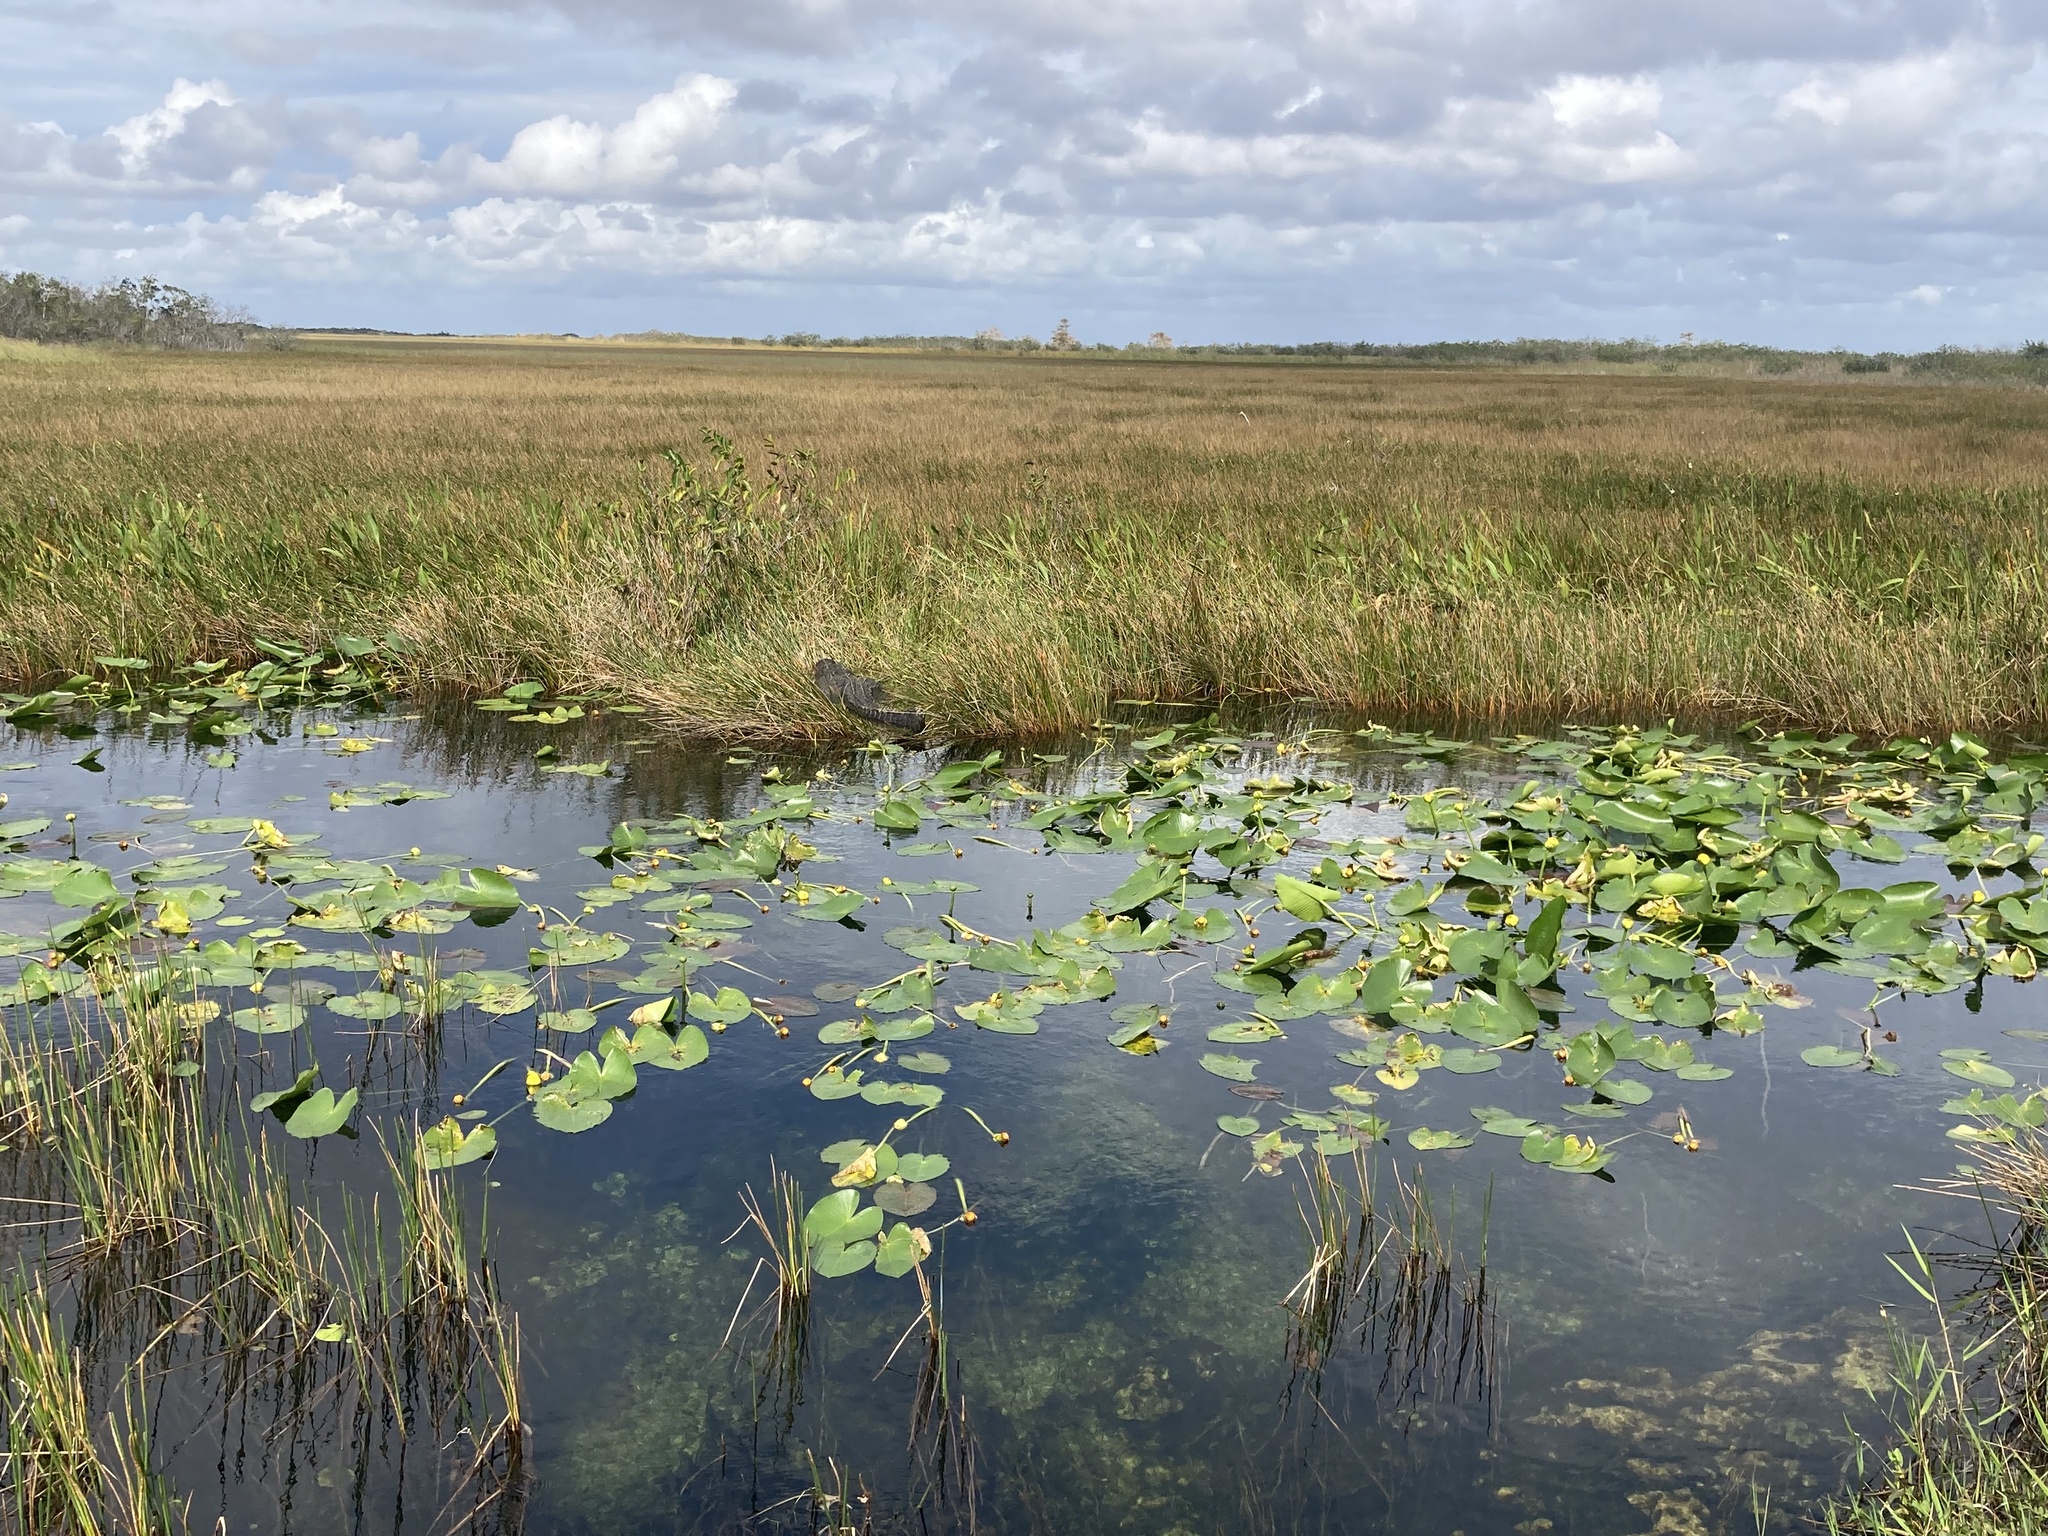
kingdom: Animalia
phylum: Chordata
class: Crocodylia
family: Alligatoridae
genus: Alligator
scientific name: Alligator mississippiensis
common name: American alligator
